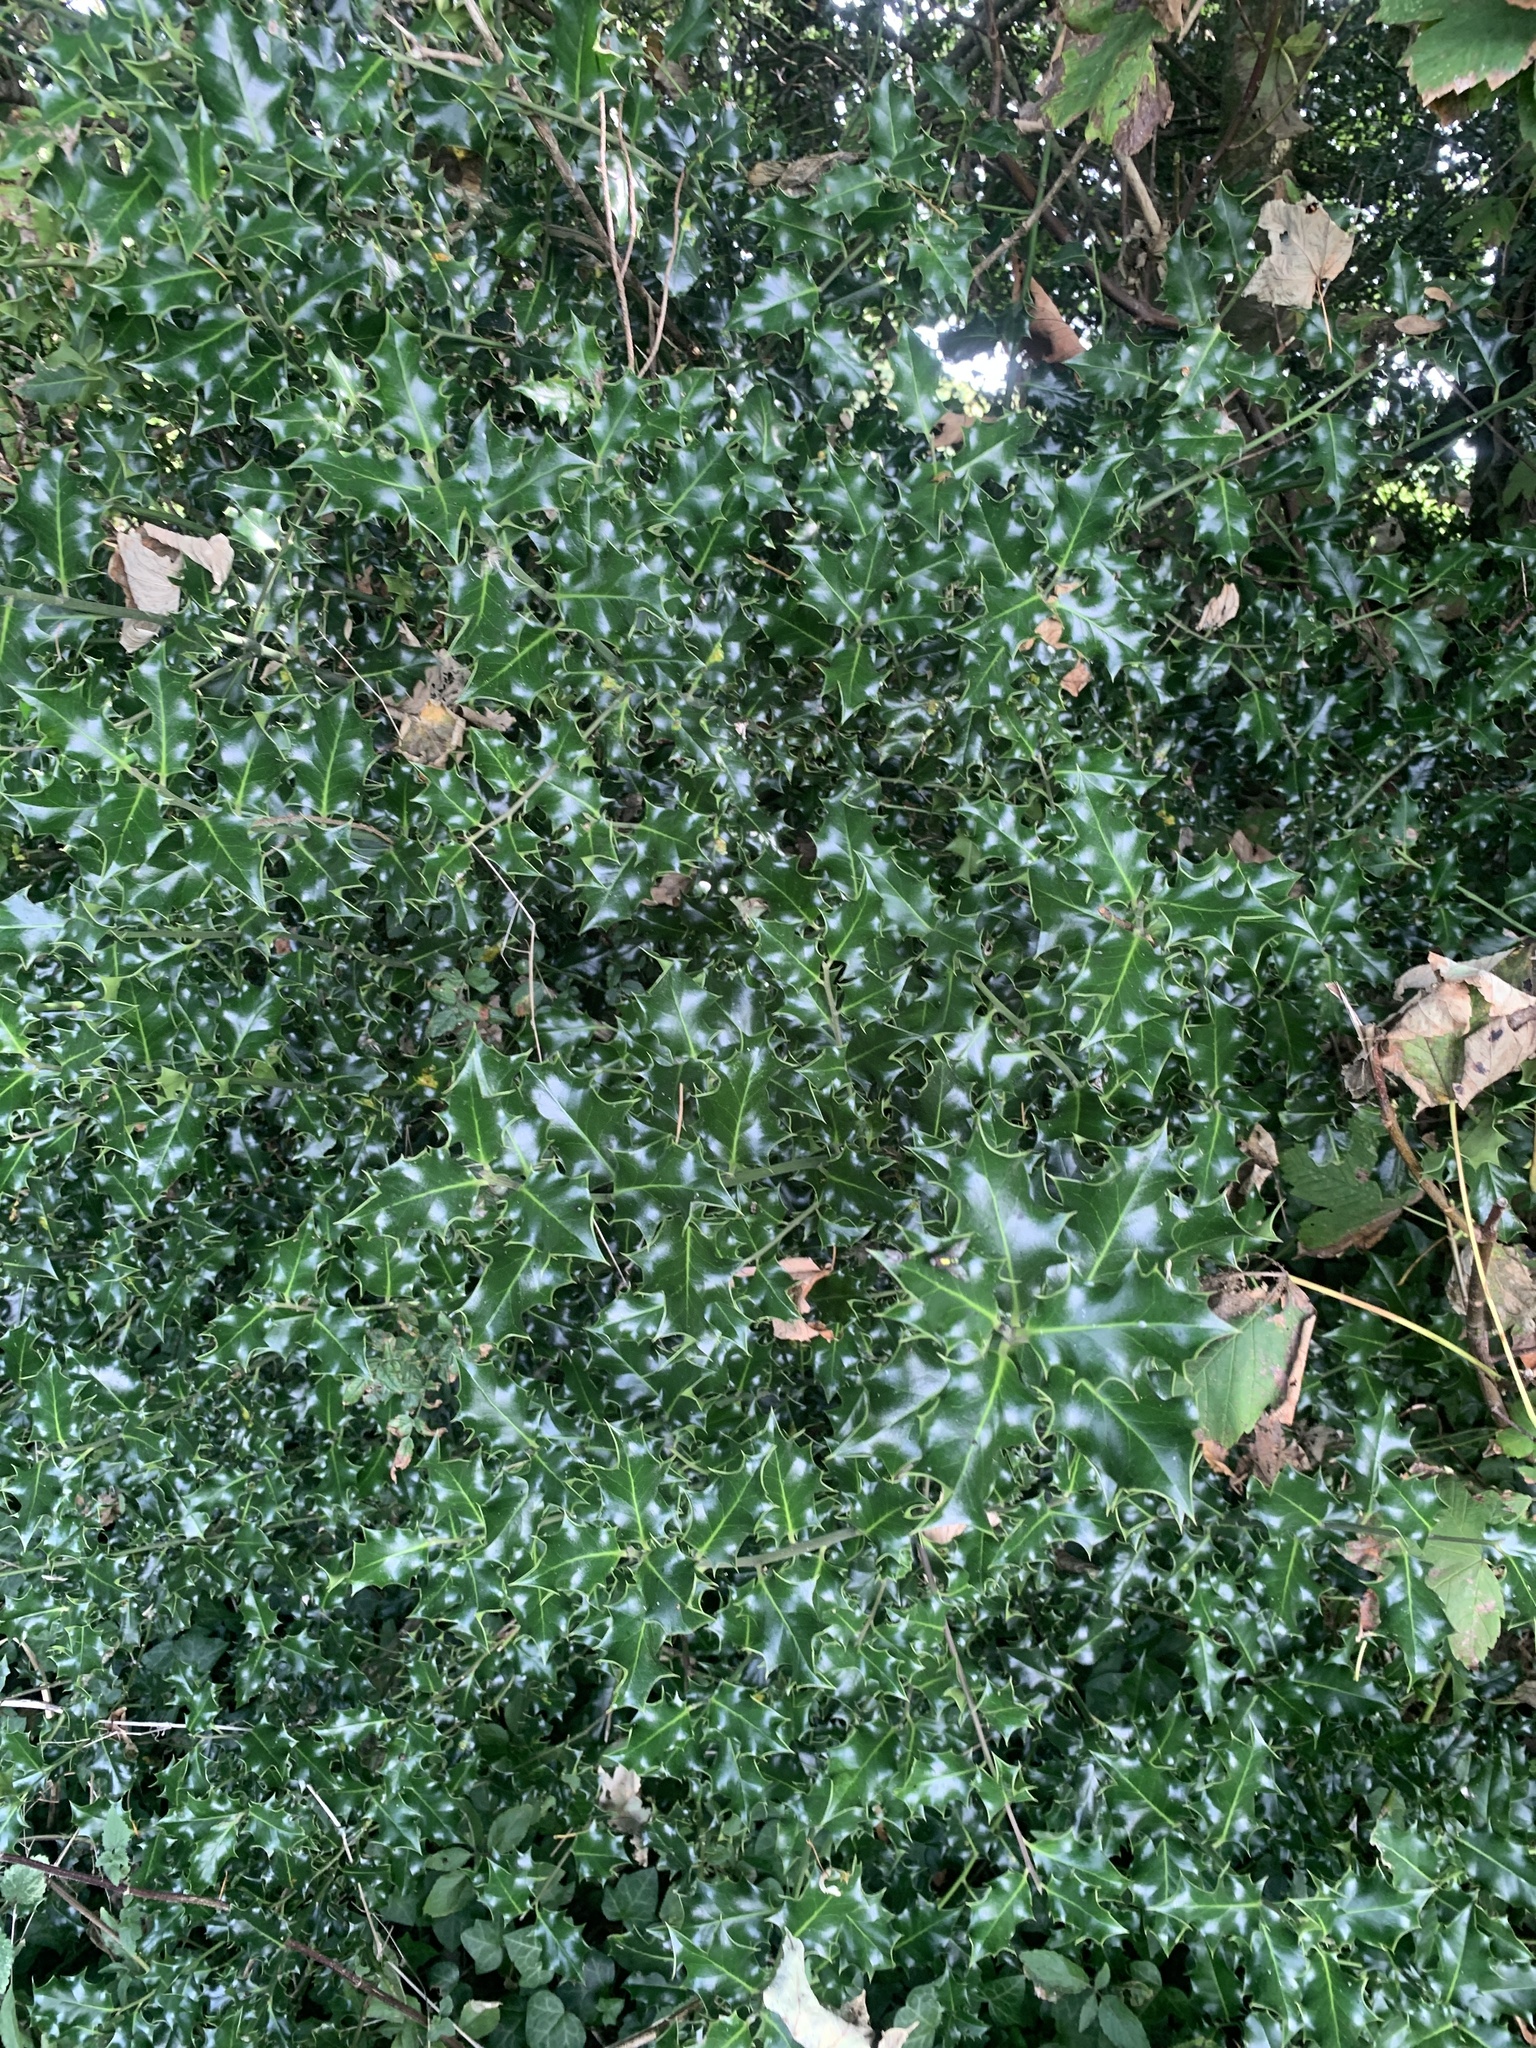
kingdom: Plantae
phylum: Tracheophyta
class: Magnoliopsida
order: Aquifoliales
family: Aquifoliaceae
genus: Ilex
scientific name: Ilex aquifolium
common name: English holly
